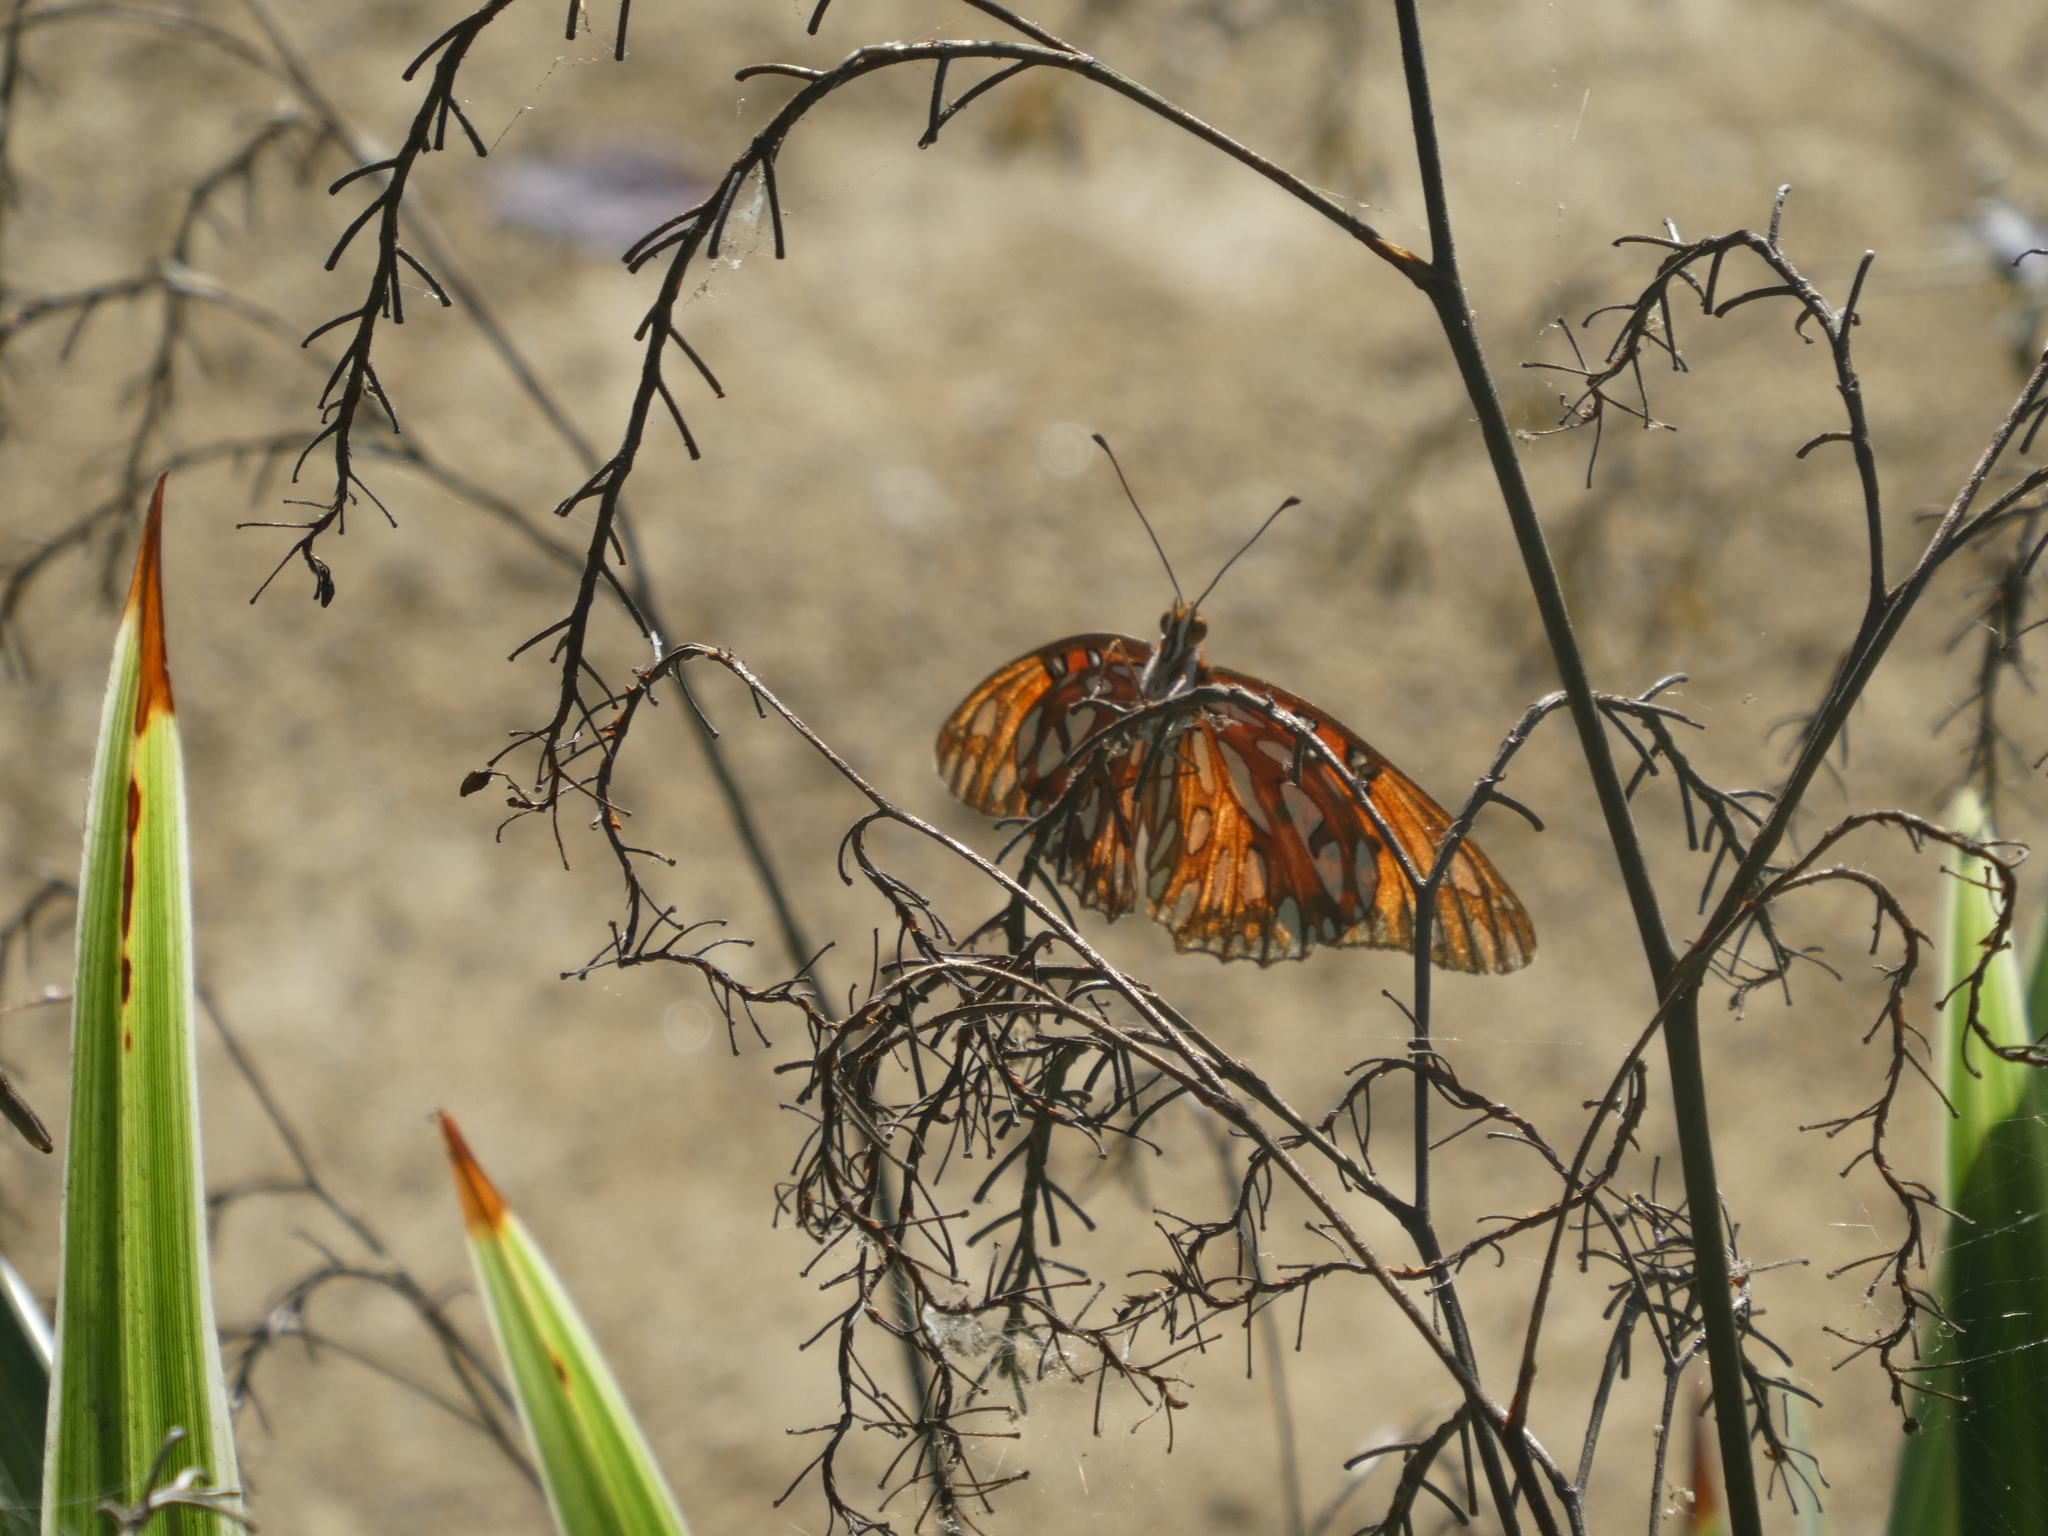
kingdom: Animalia
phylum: Arthropoda
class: Insecta
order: Lepidoptera
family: Nymphalidae
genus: Dione
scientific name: Dione vanillae
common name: Gulf fritillary
